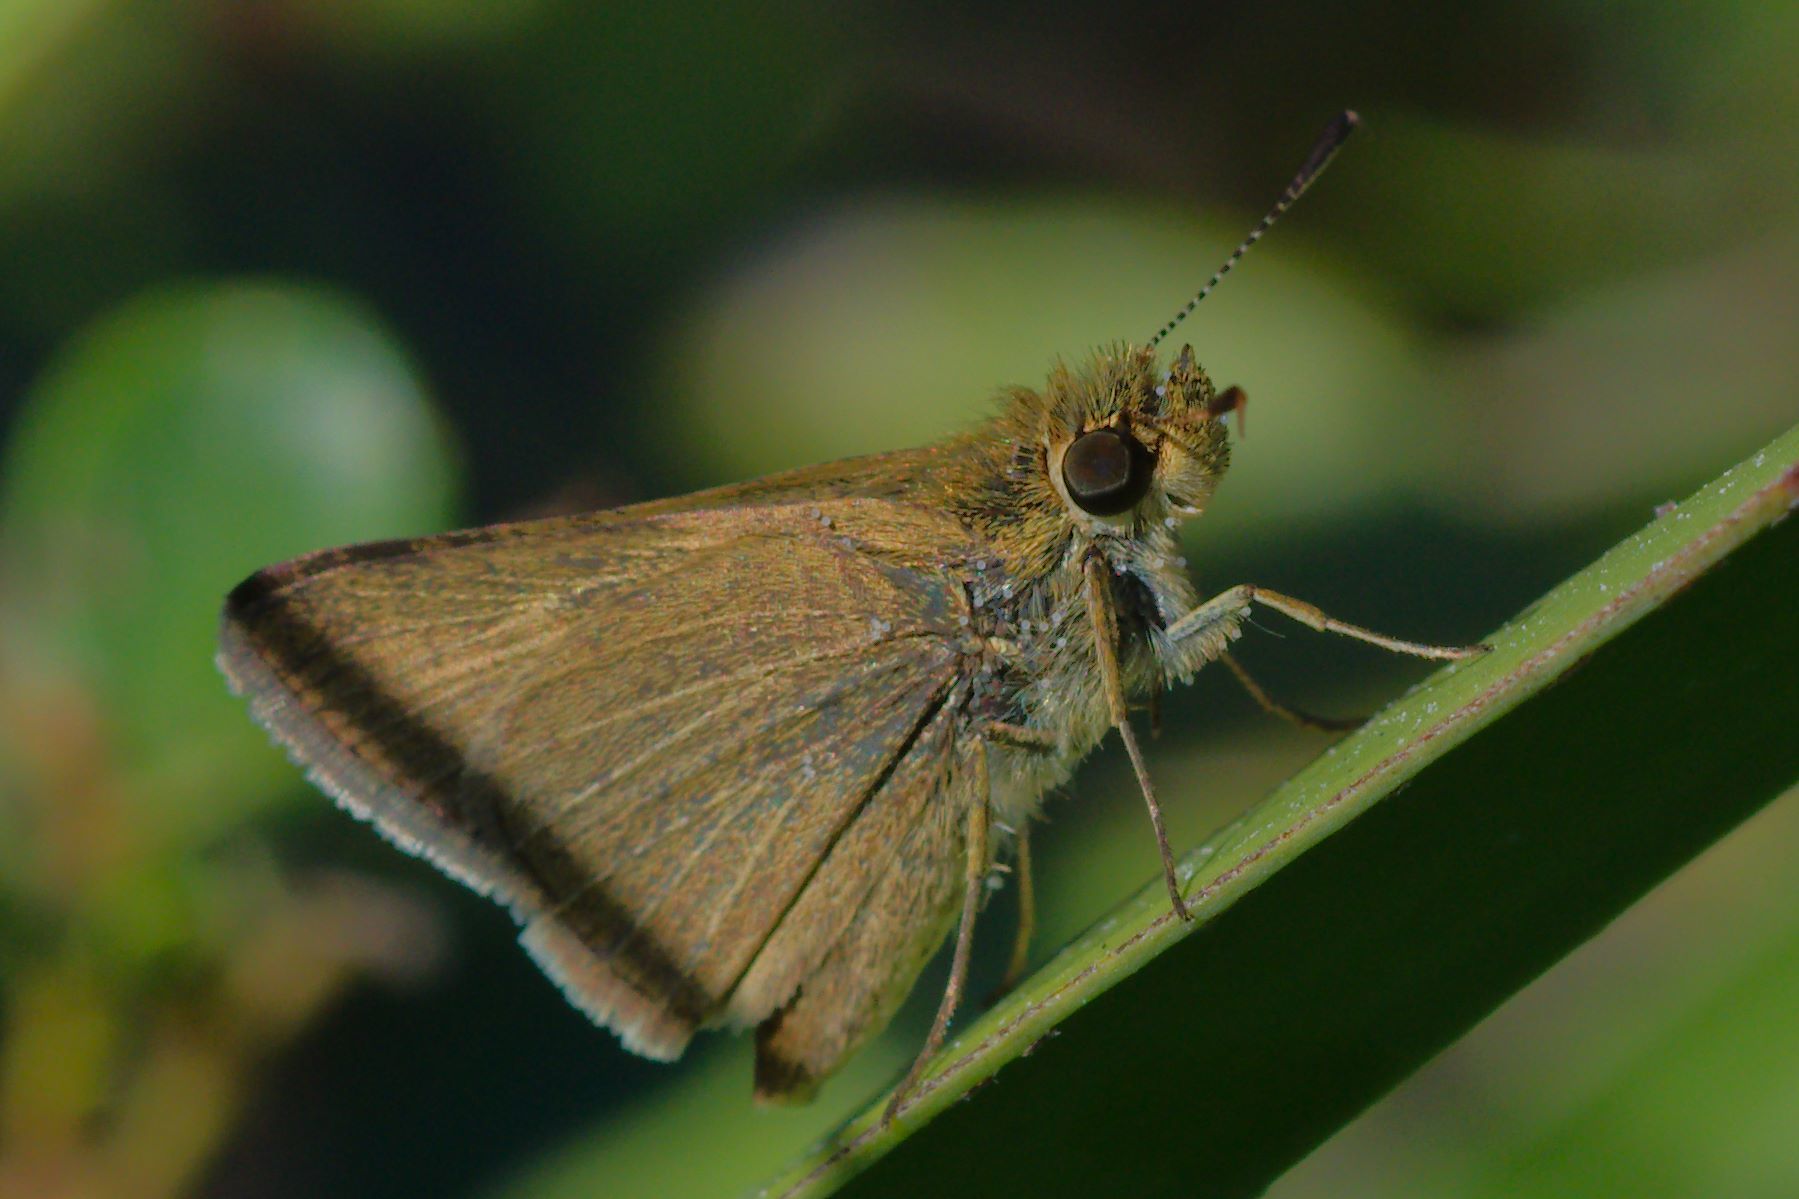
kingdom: Animalia
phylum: Arthropoda
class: Insecta
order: Lepidoptera
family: Hesperiidae
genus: Nastra
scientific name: Nastra lherminier
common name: Swarthy skipper
